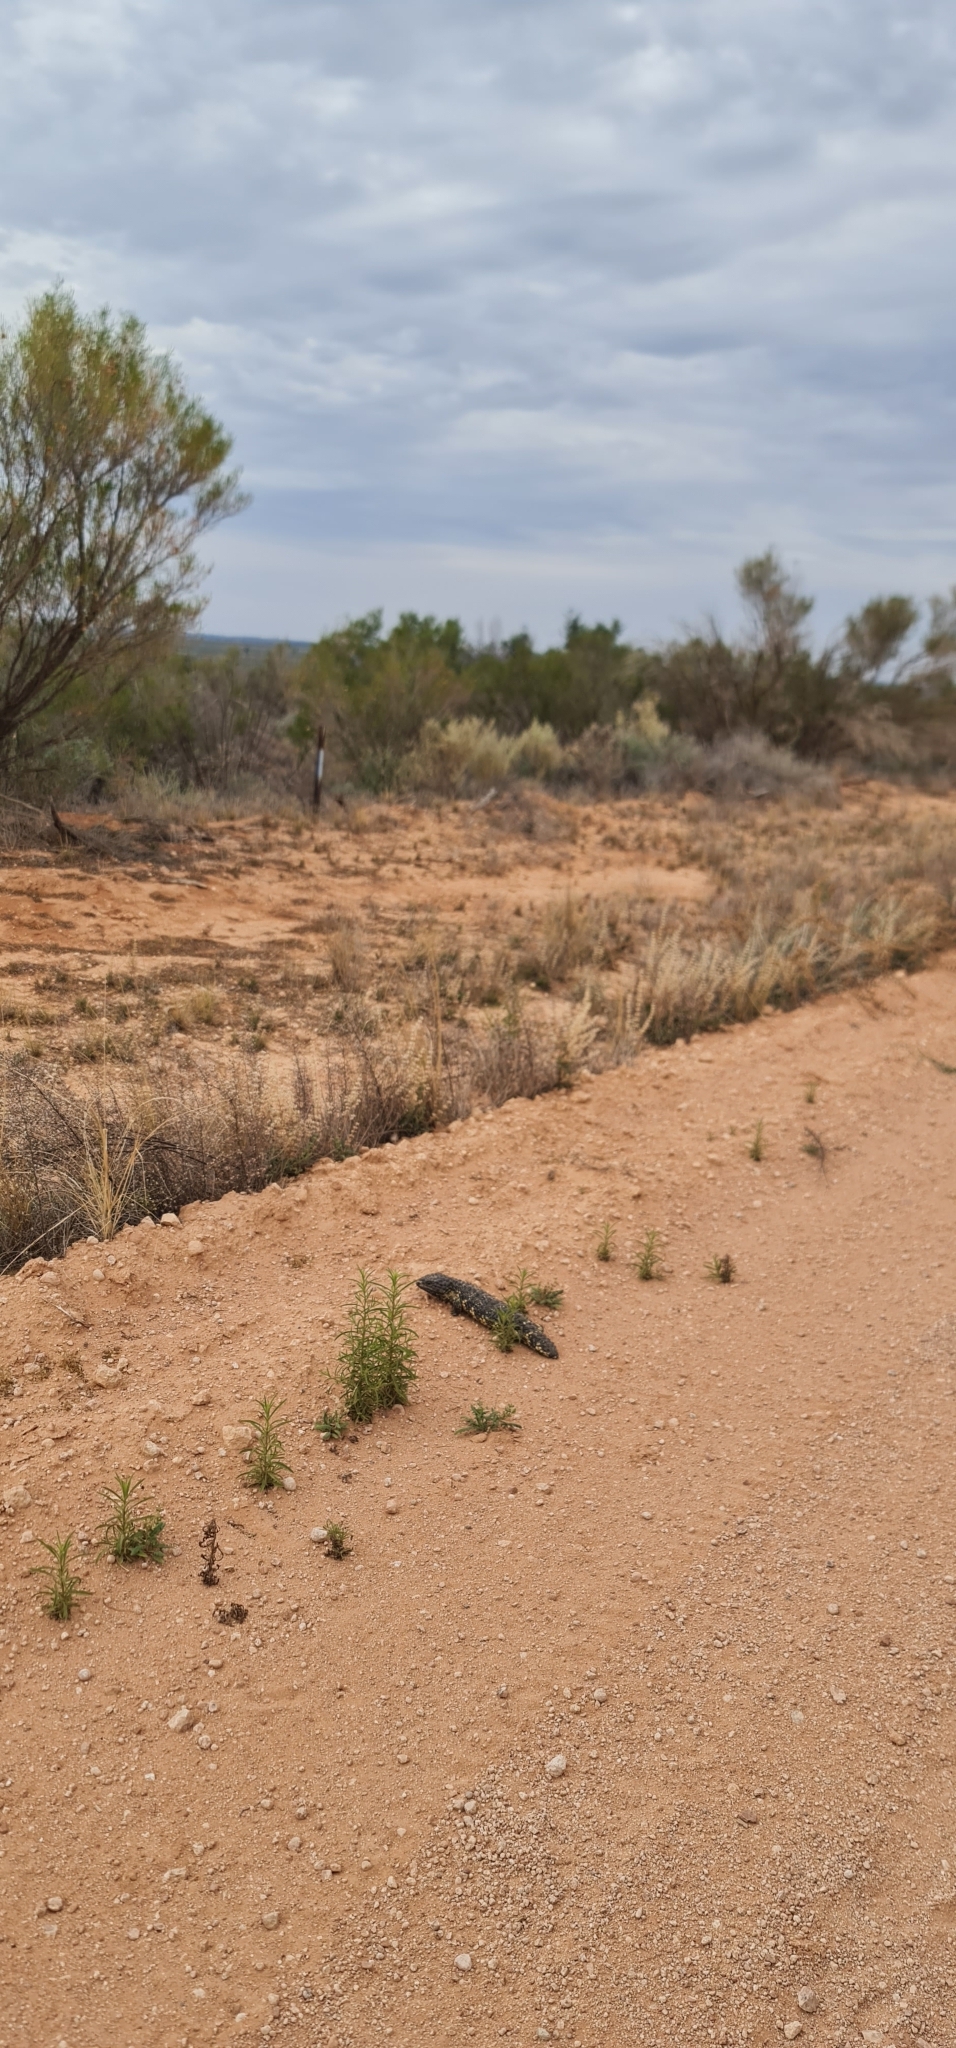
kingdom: Animalia
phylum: Chordata
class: Squamata
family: Scincidae
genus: Tiliqua
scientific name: Tiliqua rugosa
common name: Pinecone lizard
